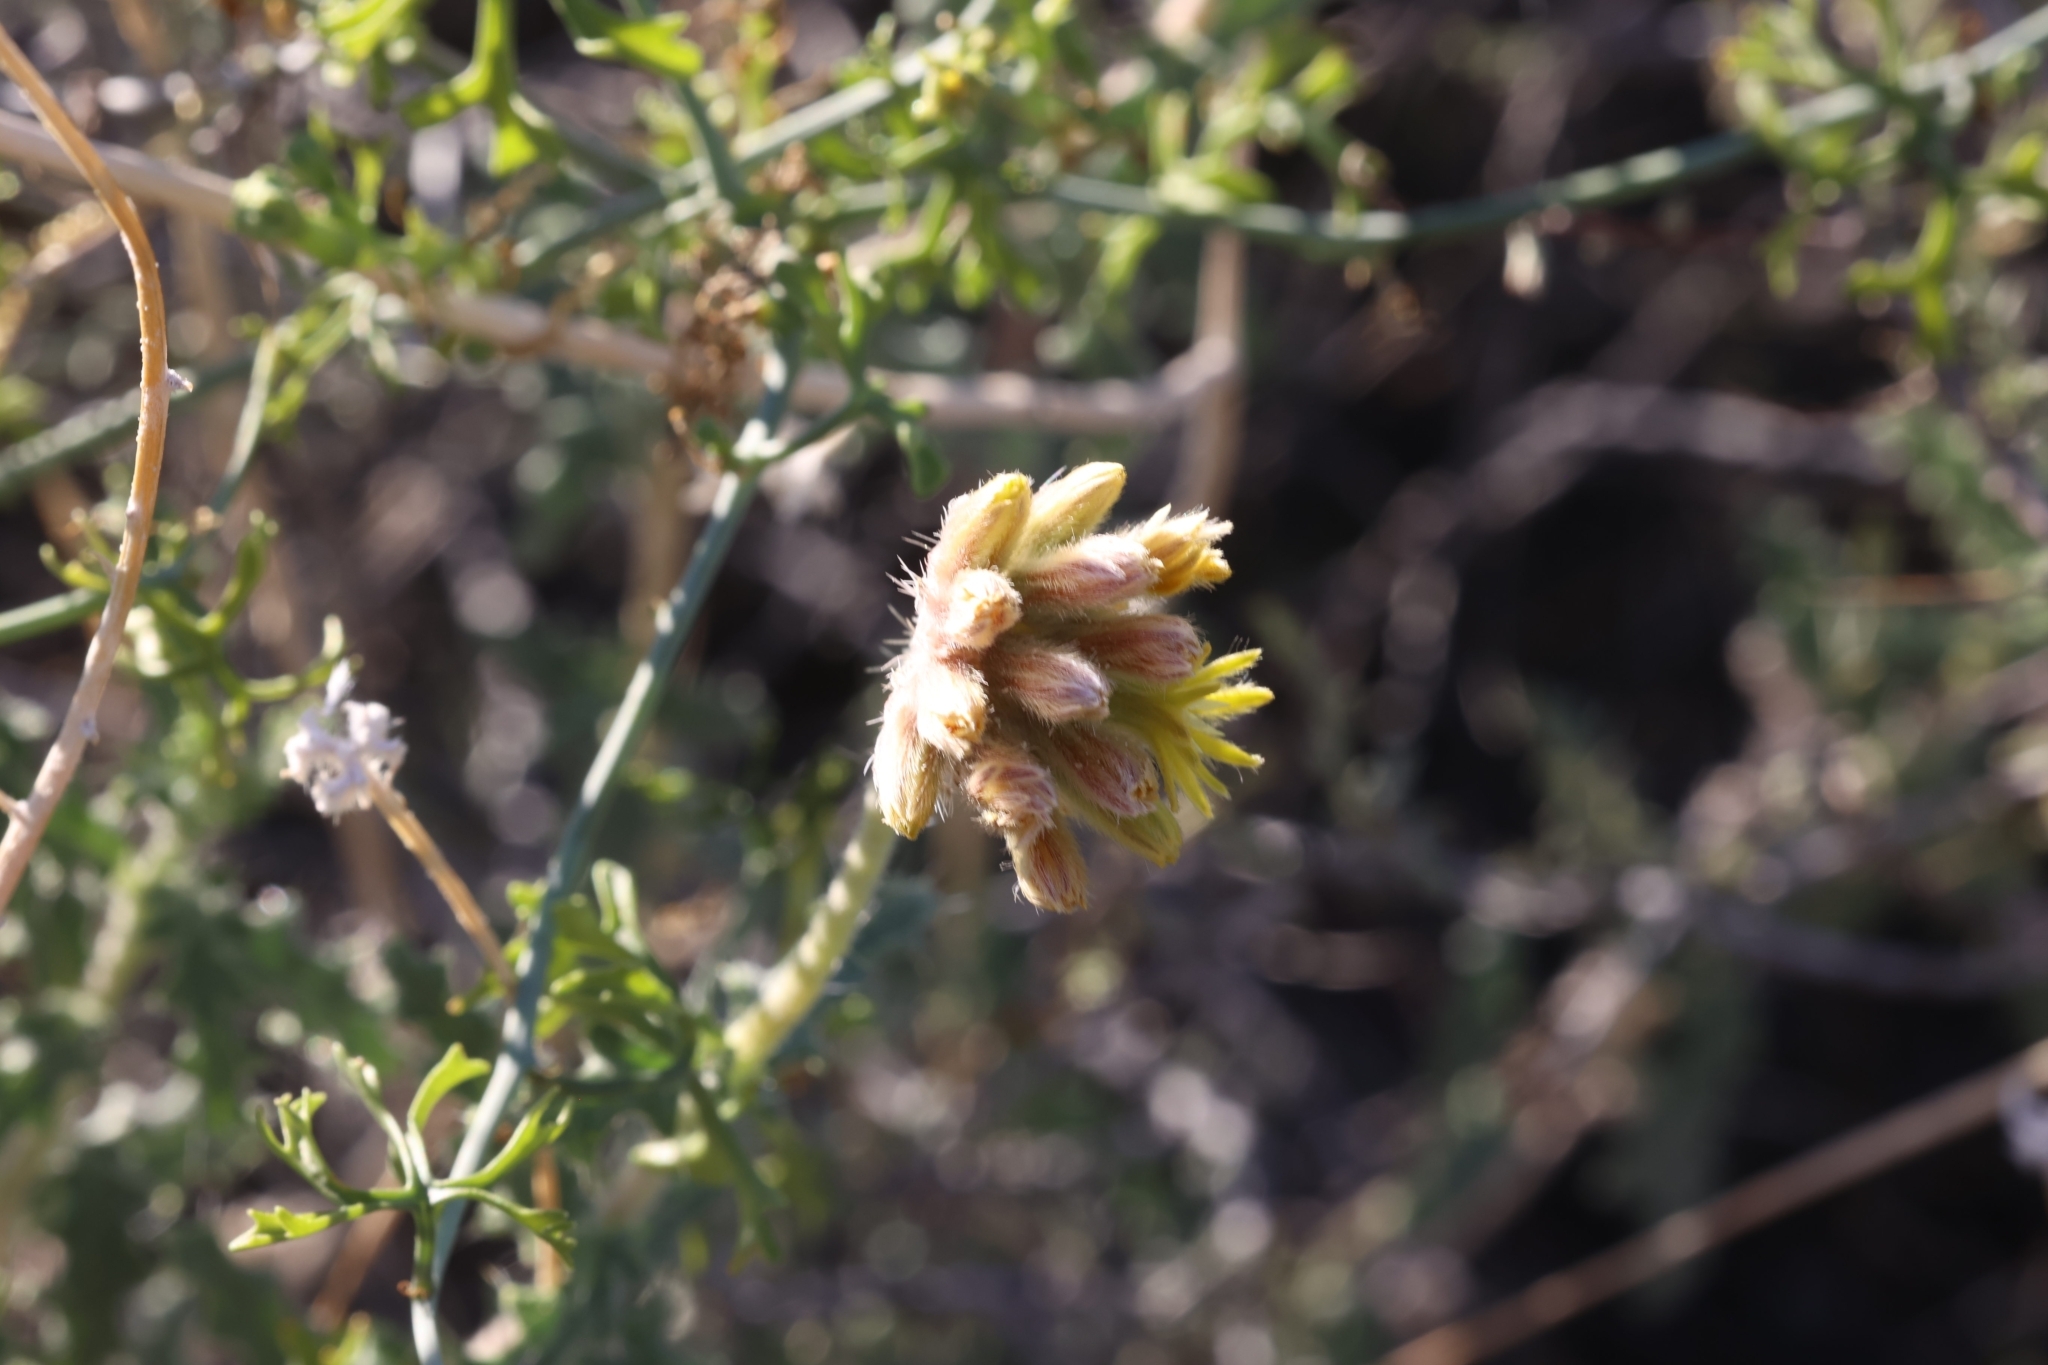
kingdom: Plantae
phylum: Tracheophyta
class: Magnoliopsida
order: Cornales
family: Loasaceae
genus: Cevallia
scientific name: Cevallia sinuata
